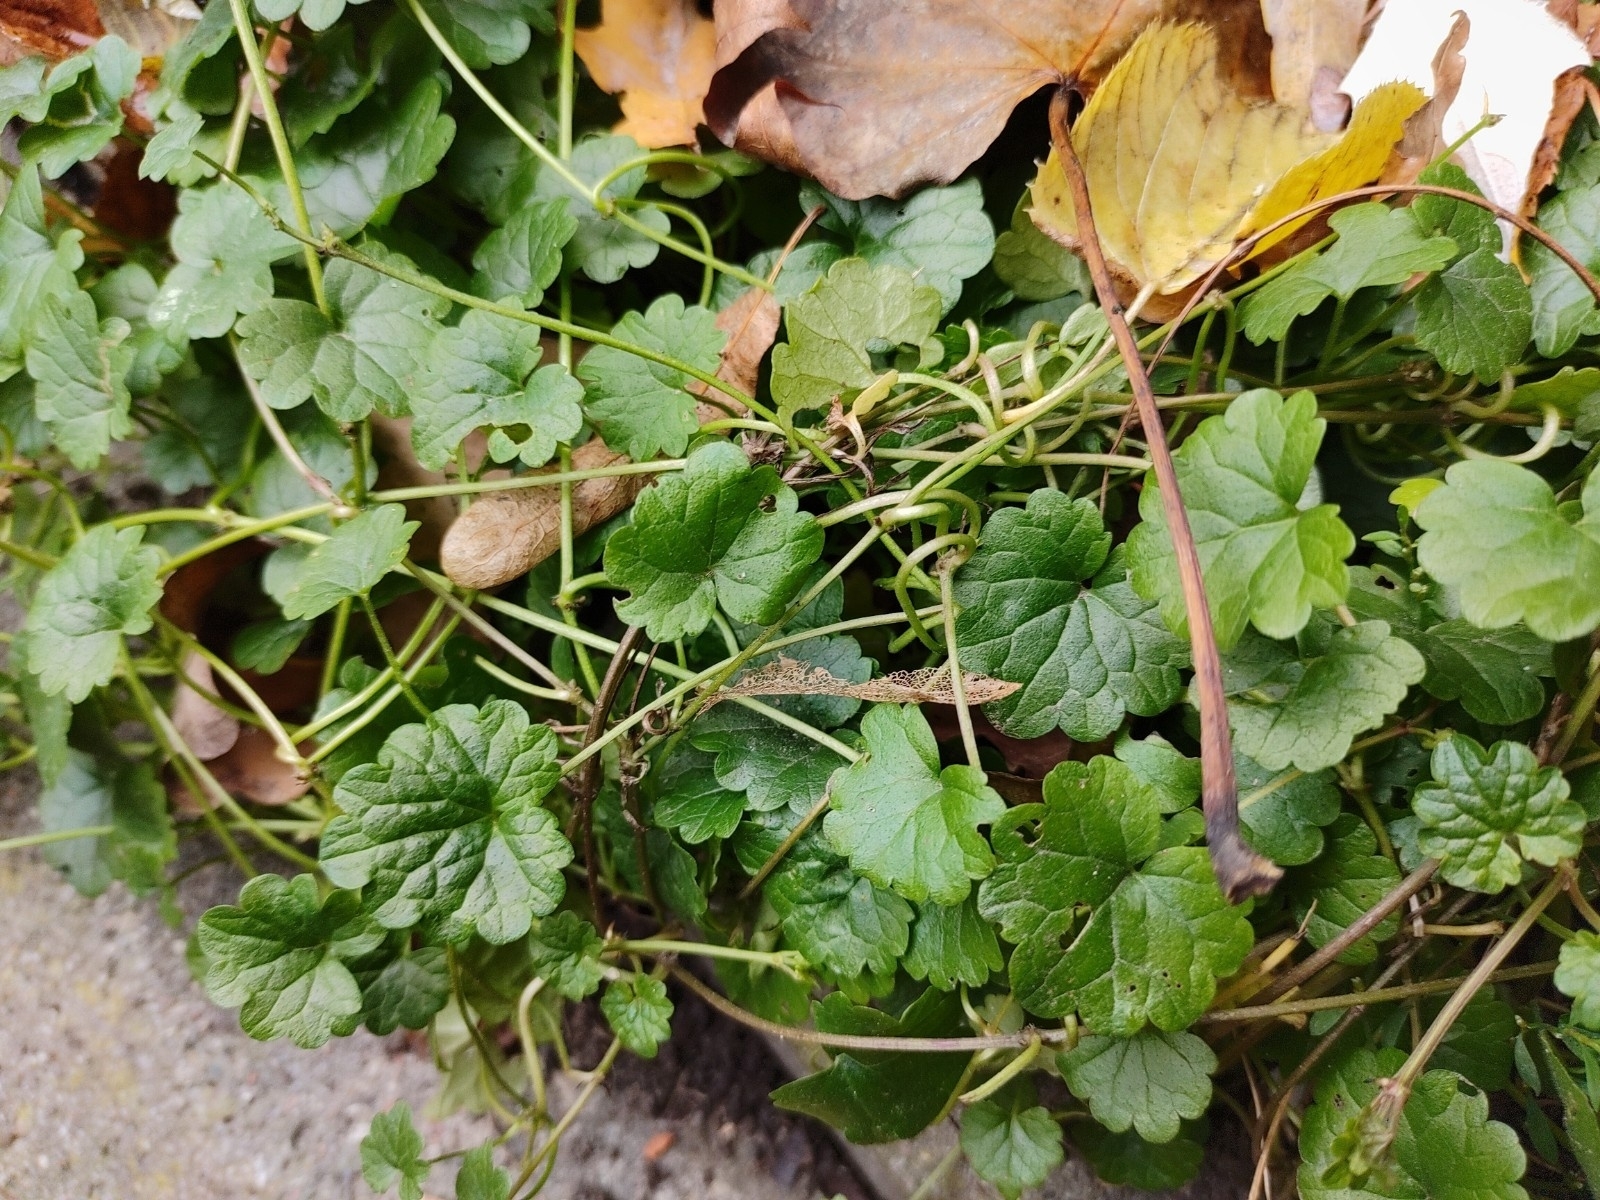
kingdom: Plantae
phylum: Tracheophyta
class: Magnoliopsida
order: Lamiales
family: Lamiaceae
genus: Glechoma
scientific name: Glechoma hederacea
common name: Ground ivy
